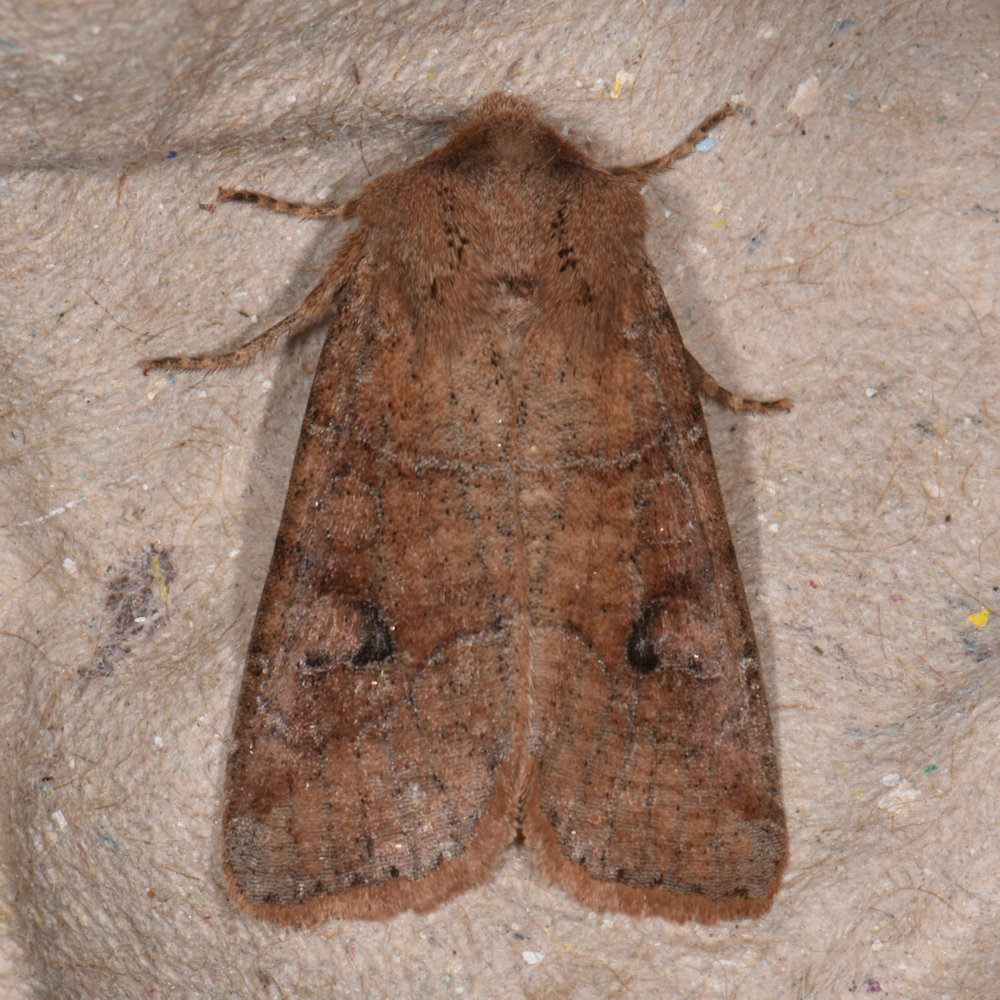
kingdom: Animalia
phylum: Arthropoda
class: Insecta
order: Lepidoptera
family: Noctuidae
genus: Crocigrapha
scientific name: Crocigrapha normani
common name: Norman's quaker
